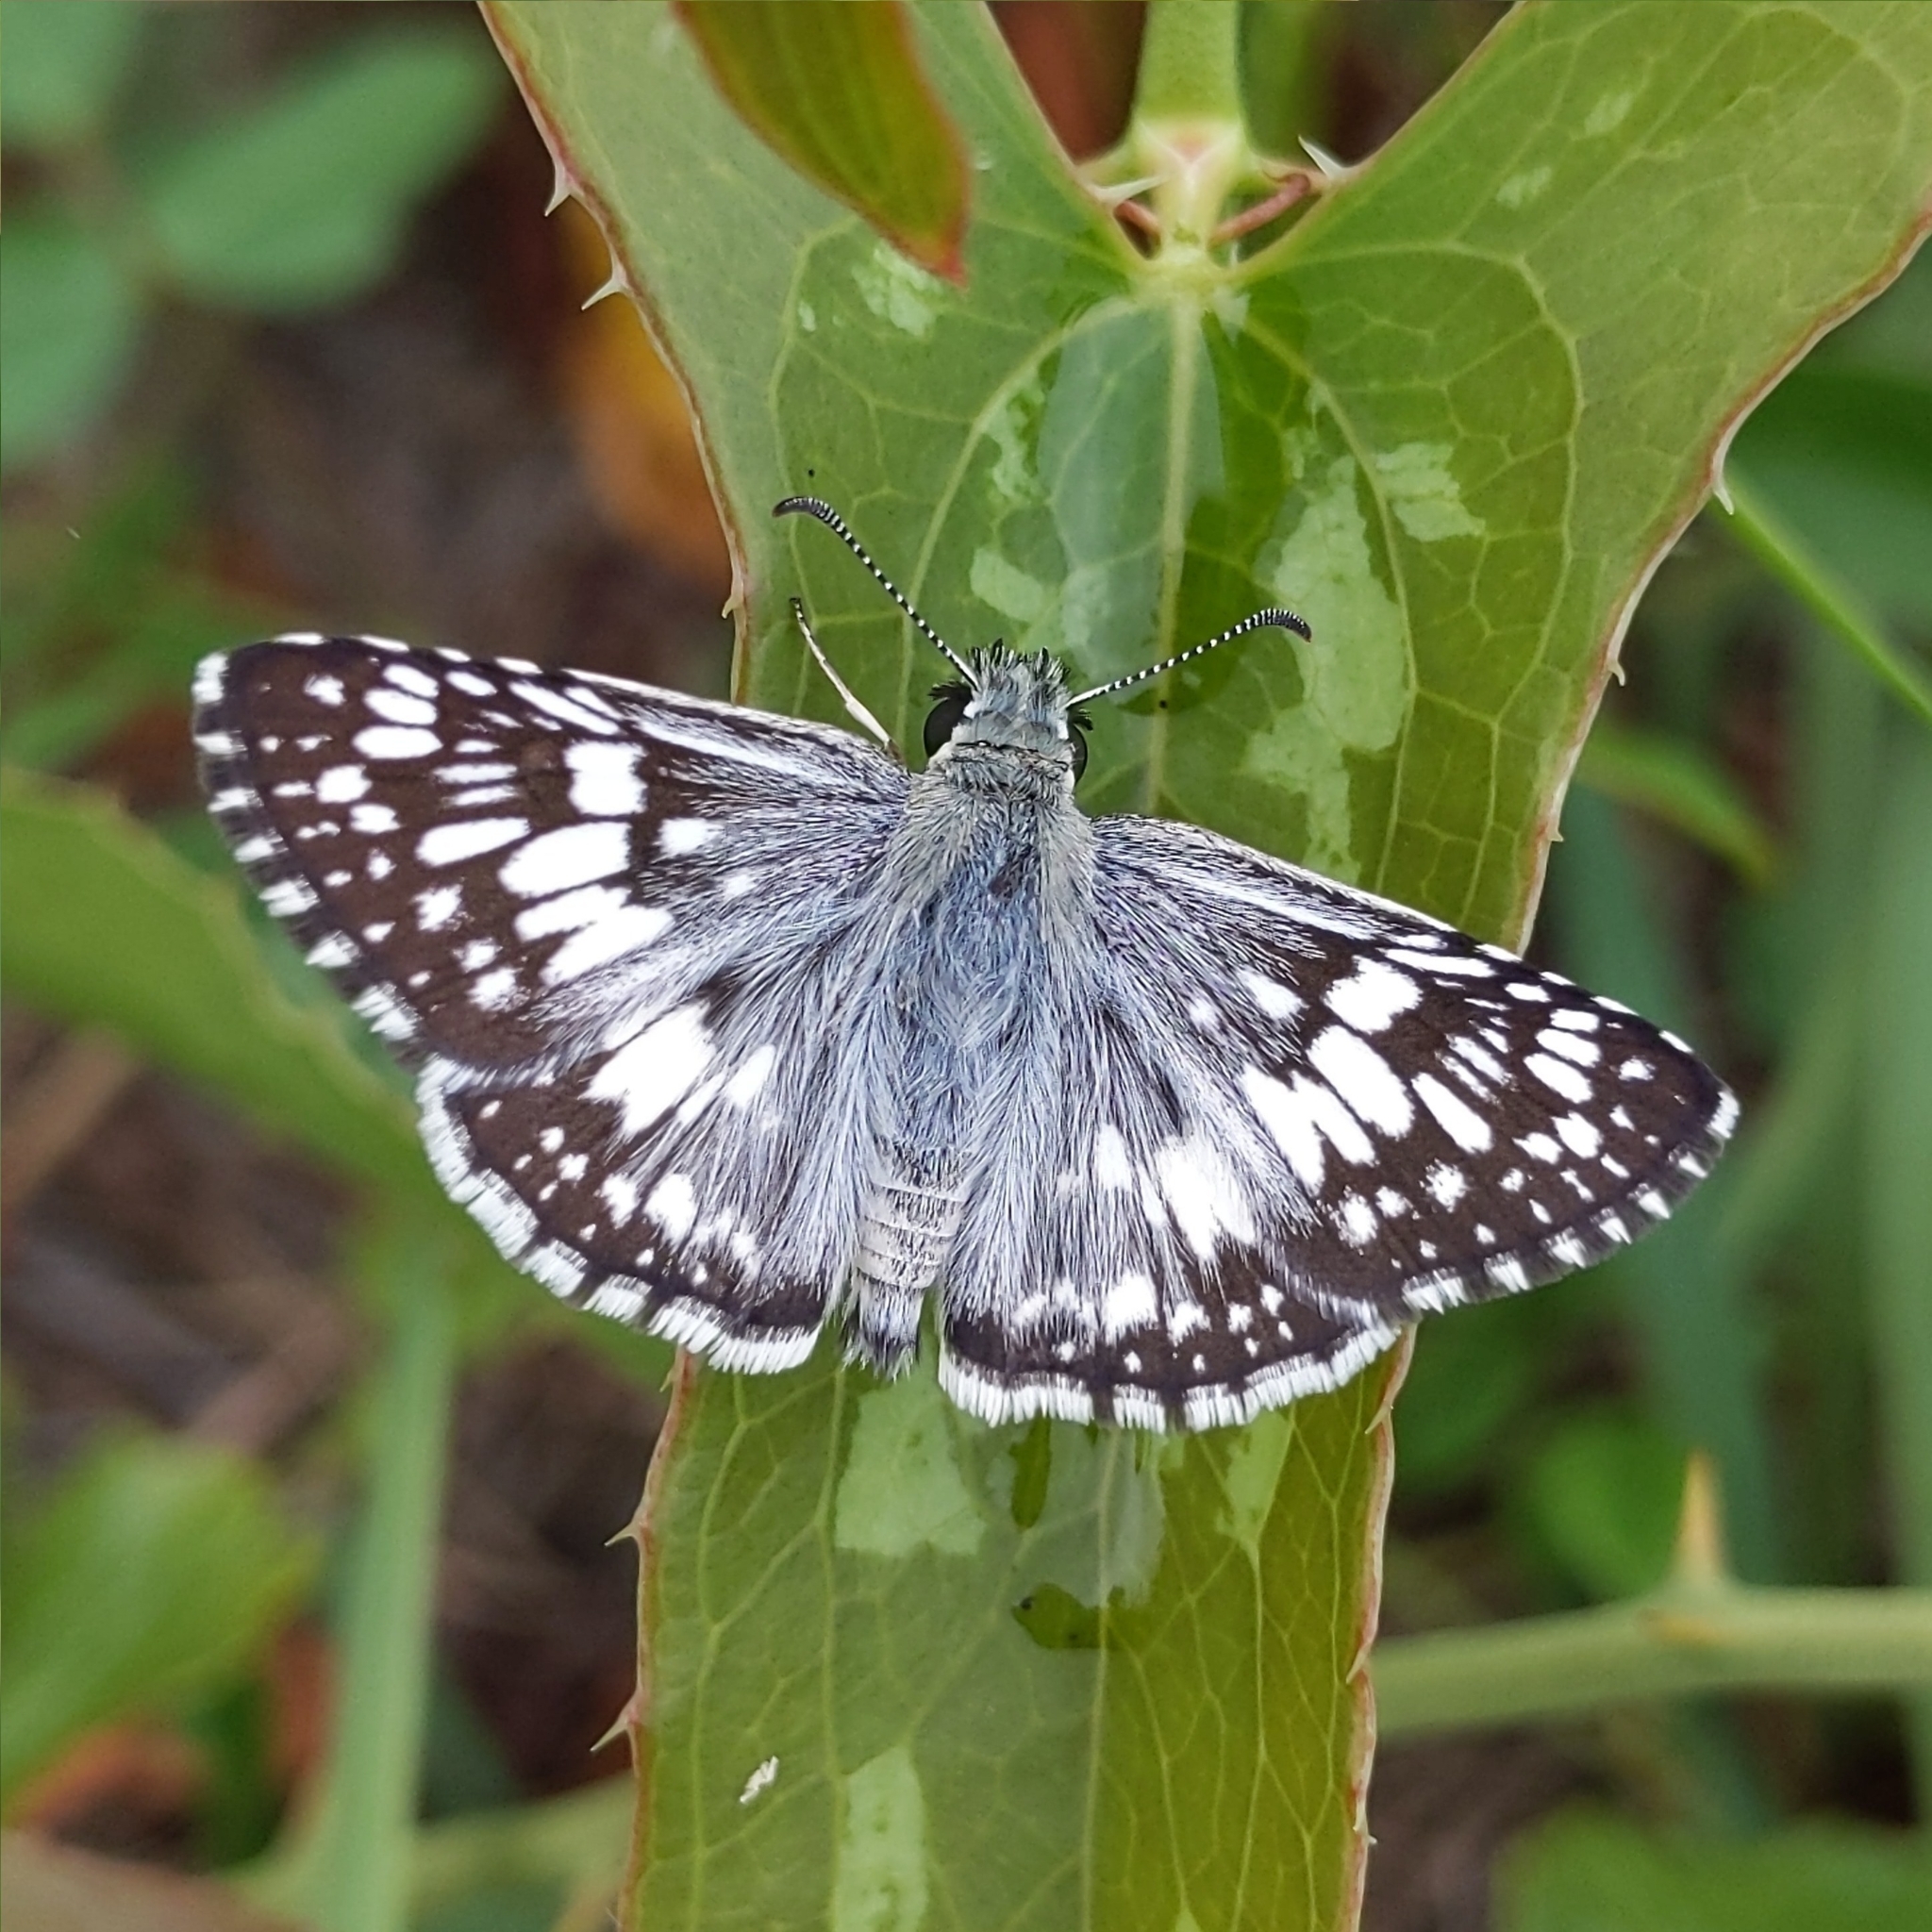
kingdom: Animalia
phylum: Arthropoda
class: Insecta
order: Lepidoptera
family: Hesperiidae
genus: Burnsius
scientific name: Burnsius albezens
